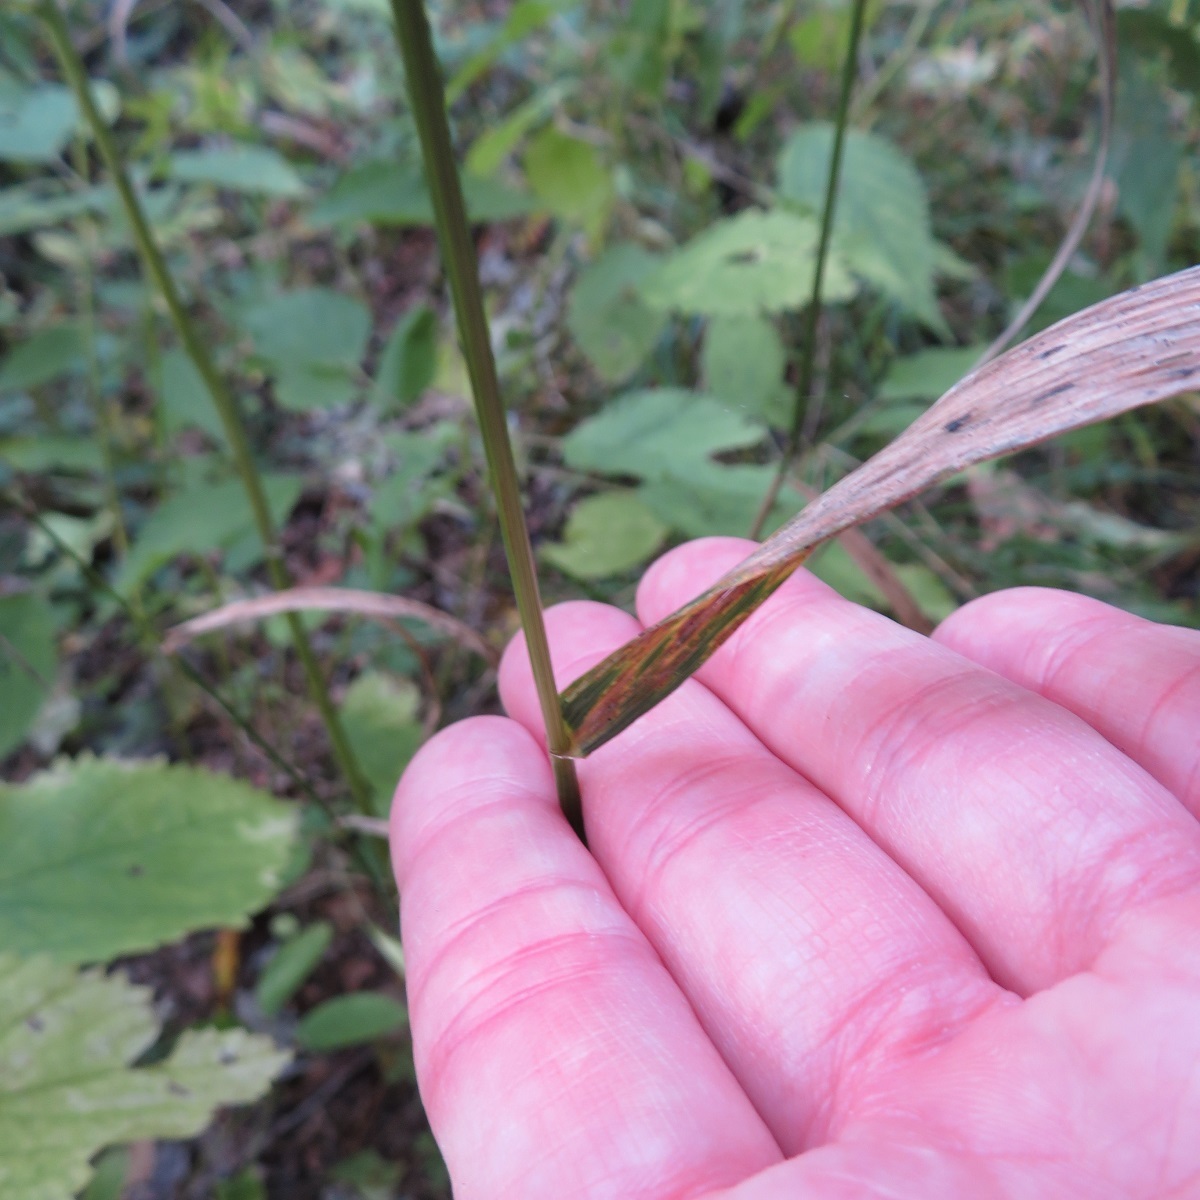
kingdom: Plantae
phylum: Tracheophyta
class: Liliopsida
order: Poales
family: Poaceae
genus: Elymus
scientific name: Elymus hystrix
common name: Bottlebrush grass
